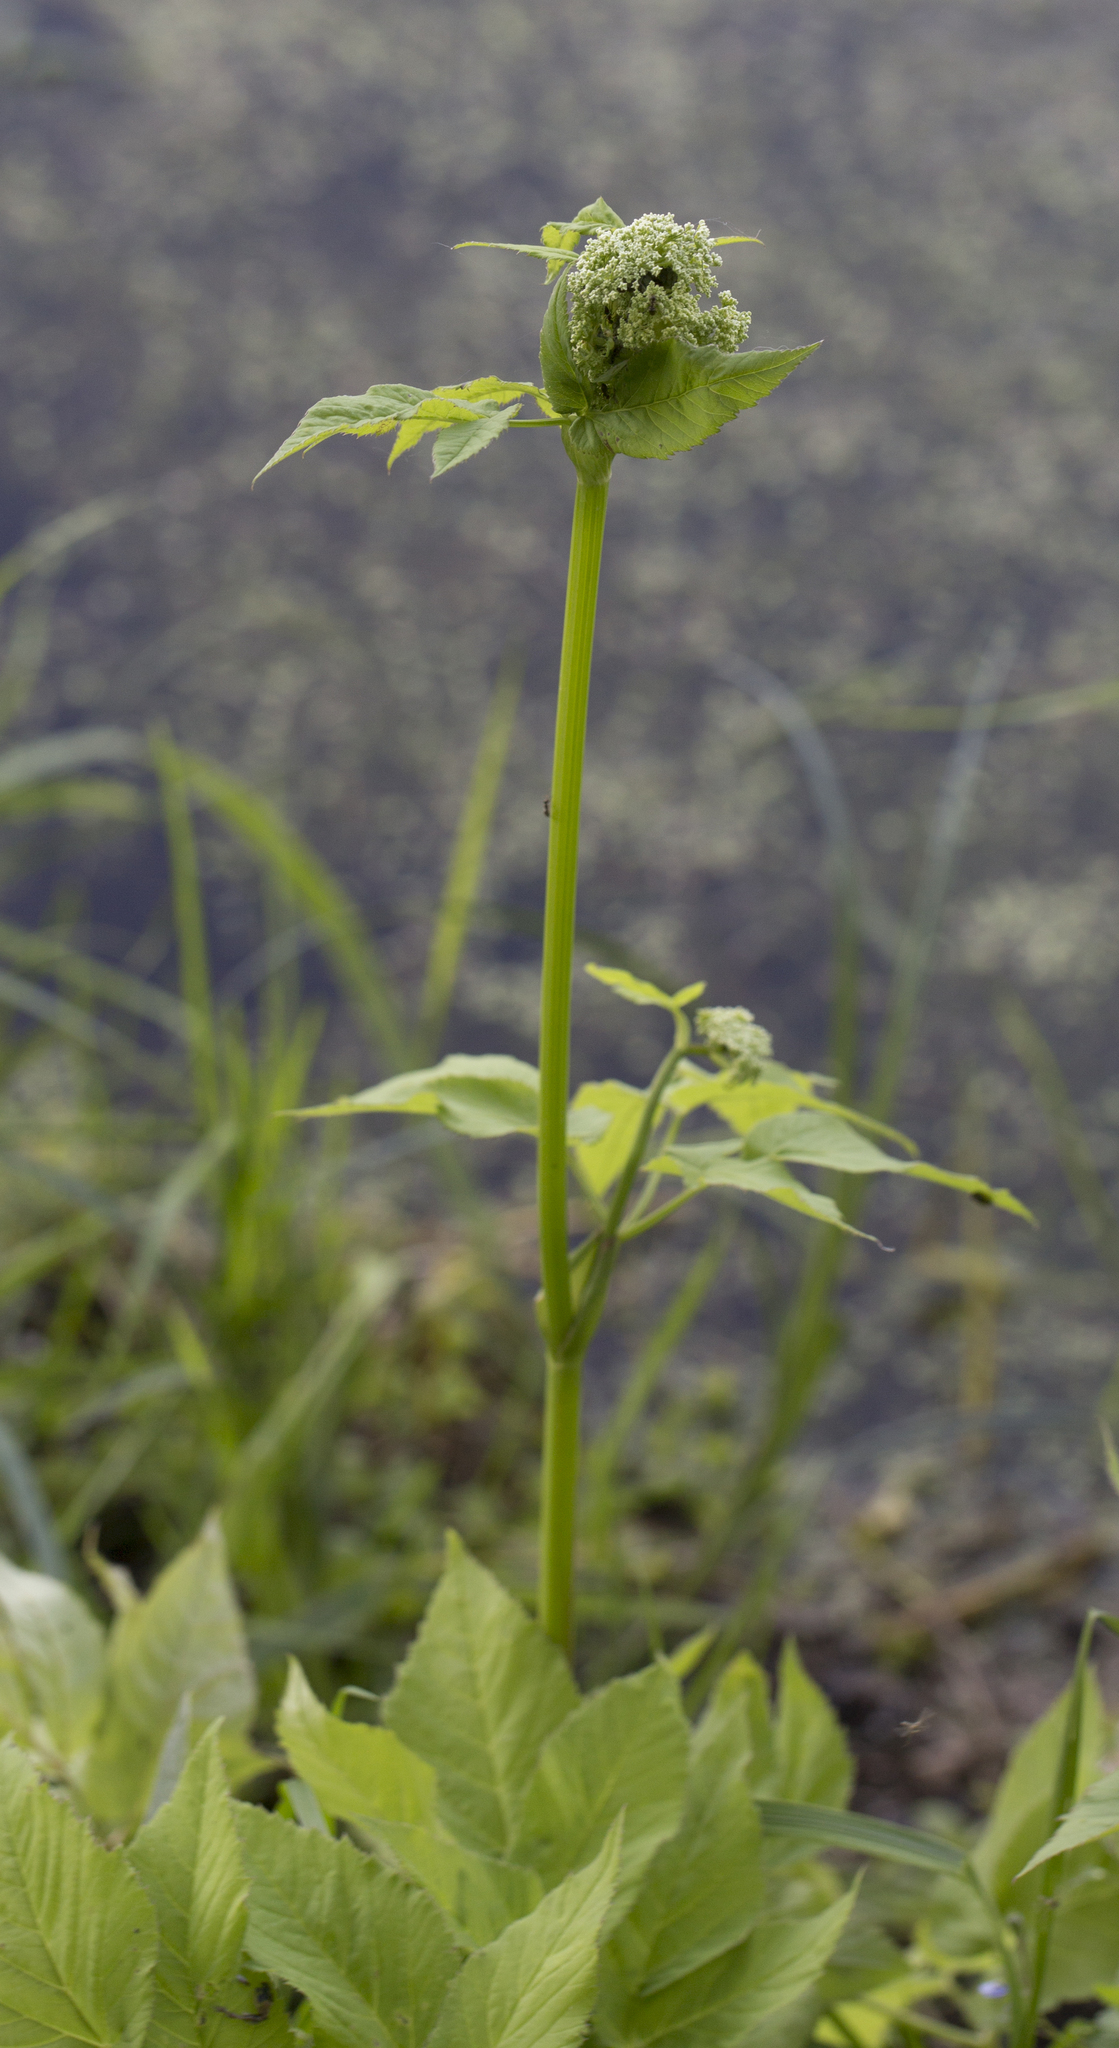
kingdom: Plantae
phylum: Tracheophyta
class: Magnoliopsida
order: Apiales
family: Apiaceae
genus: Aegopodium
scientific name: Aegopodium podagraria
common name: Ground-elder
